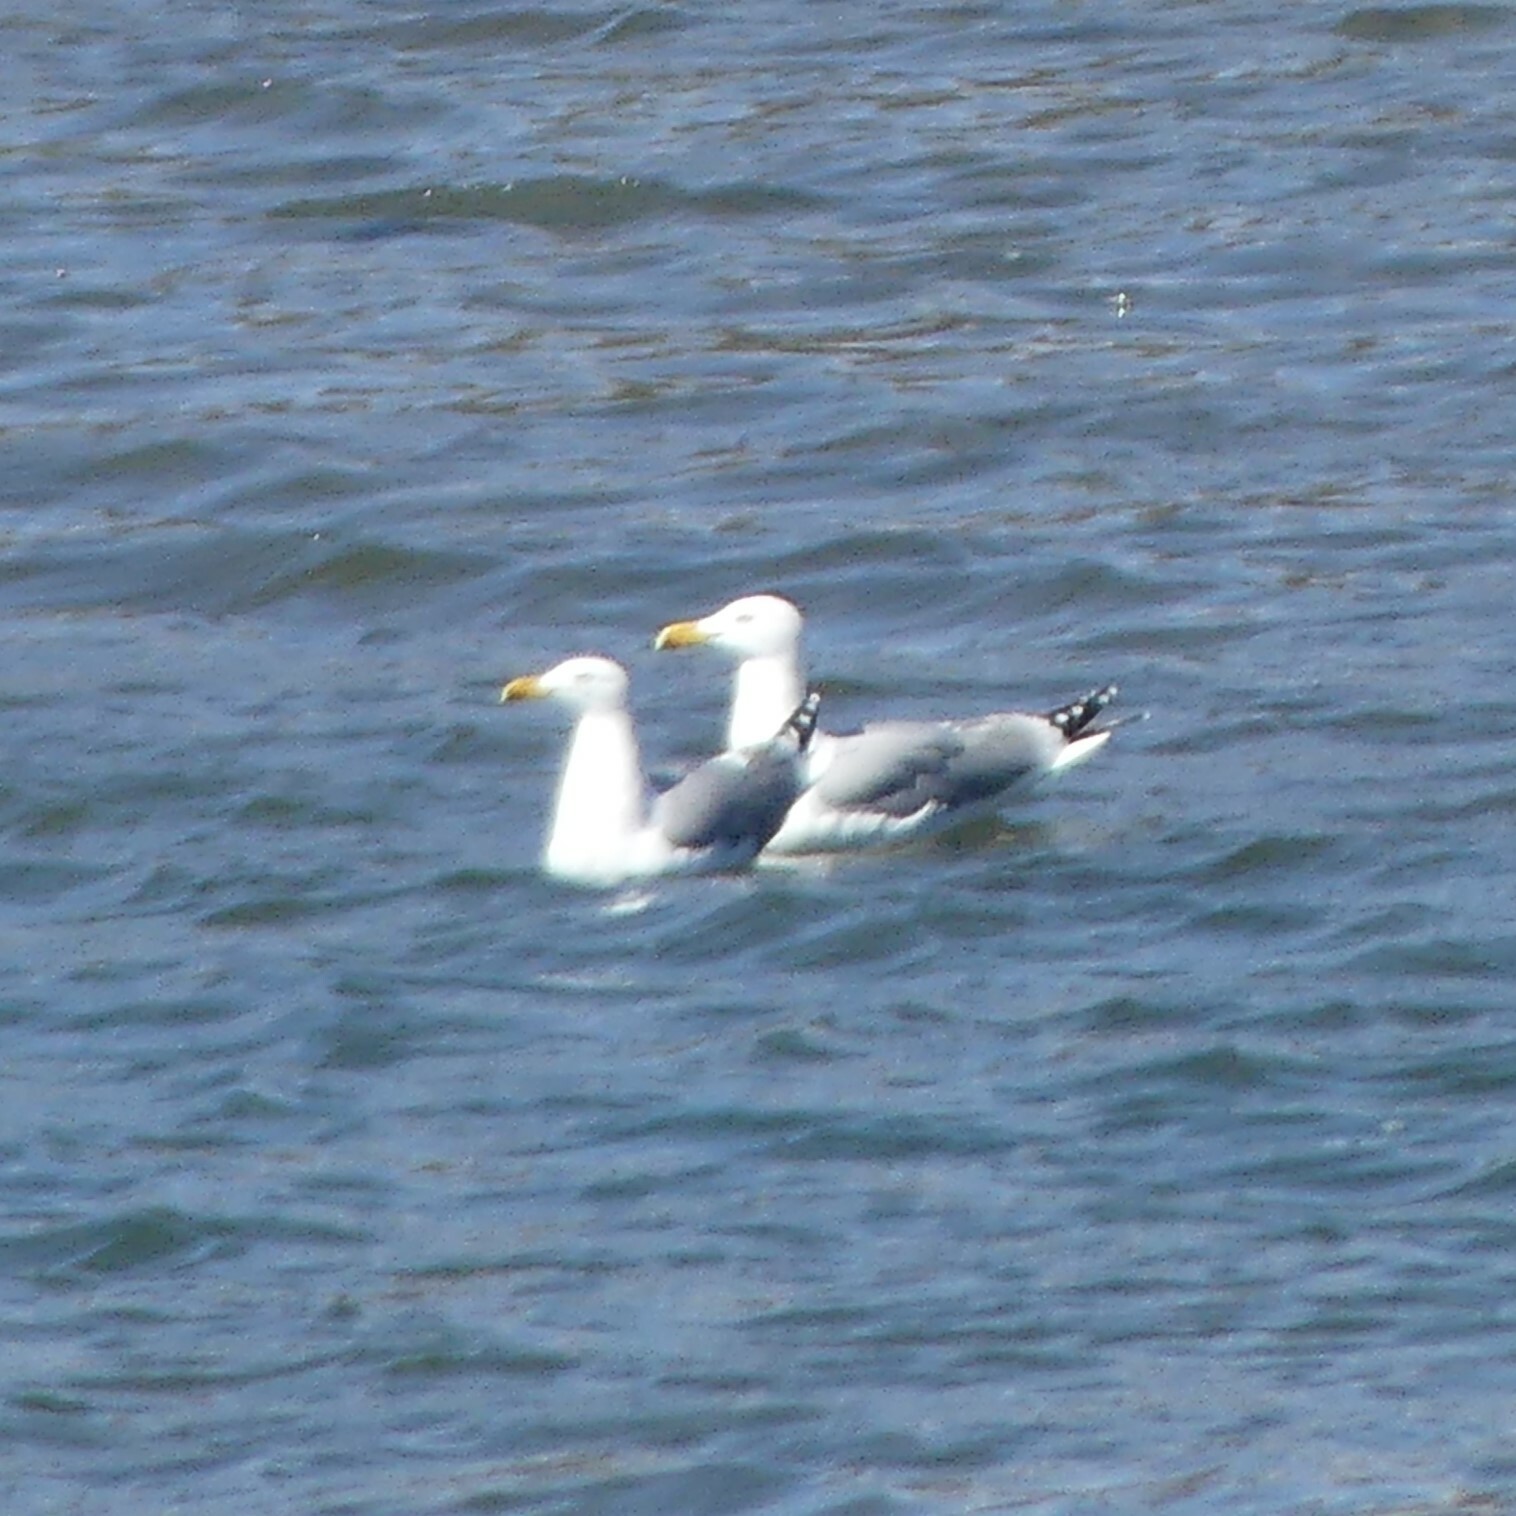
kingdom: Animalia
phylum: Chordata
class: Aves
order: Charadriiformes
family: Laridae
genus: Larus
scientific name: Larus argentatus
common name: Herring gull
